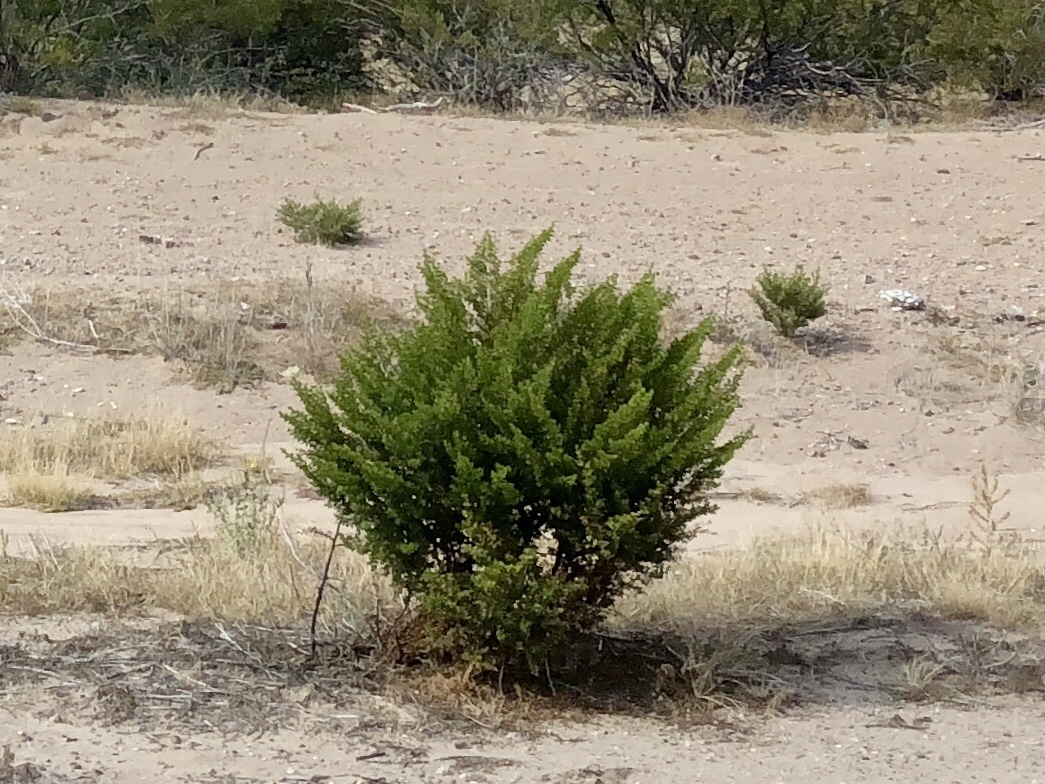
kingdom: Plantae
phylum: Tracheophyta
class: Magnoliopsida
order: Zygophyllales
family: Zygophyllaceae
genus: Larrea
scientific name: Larrea tridentata
